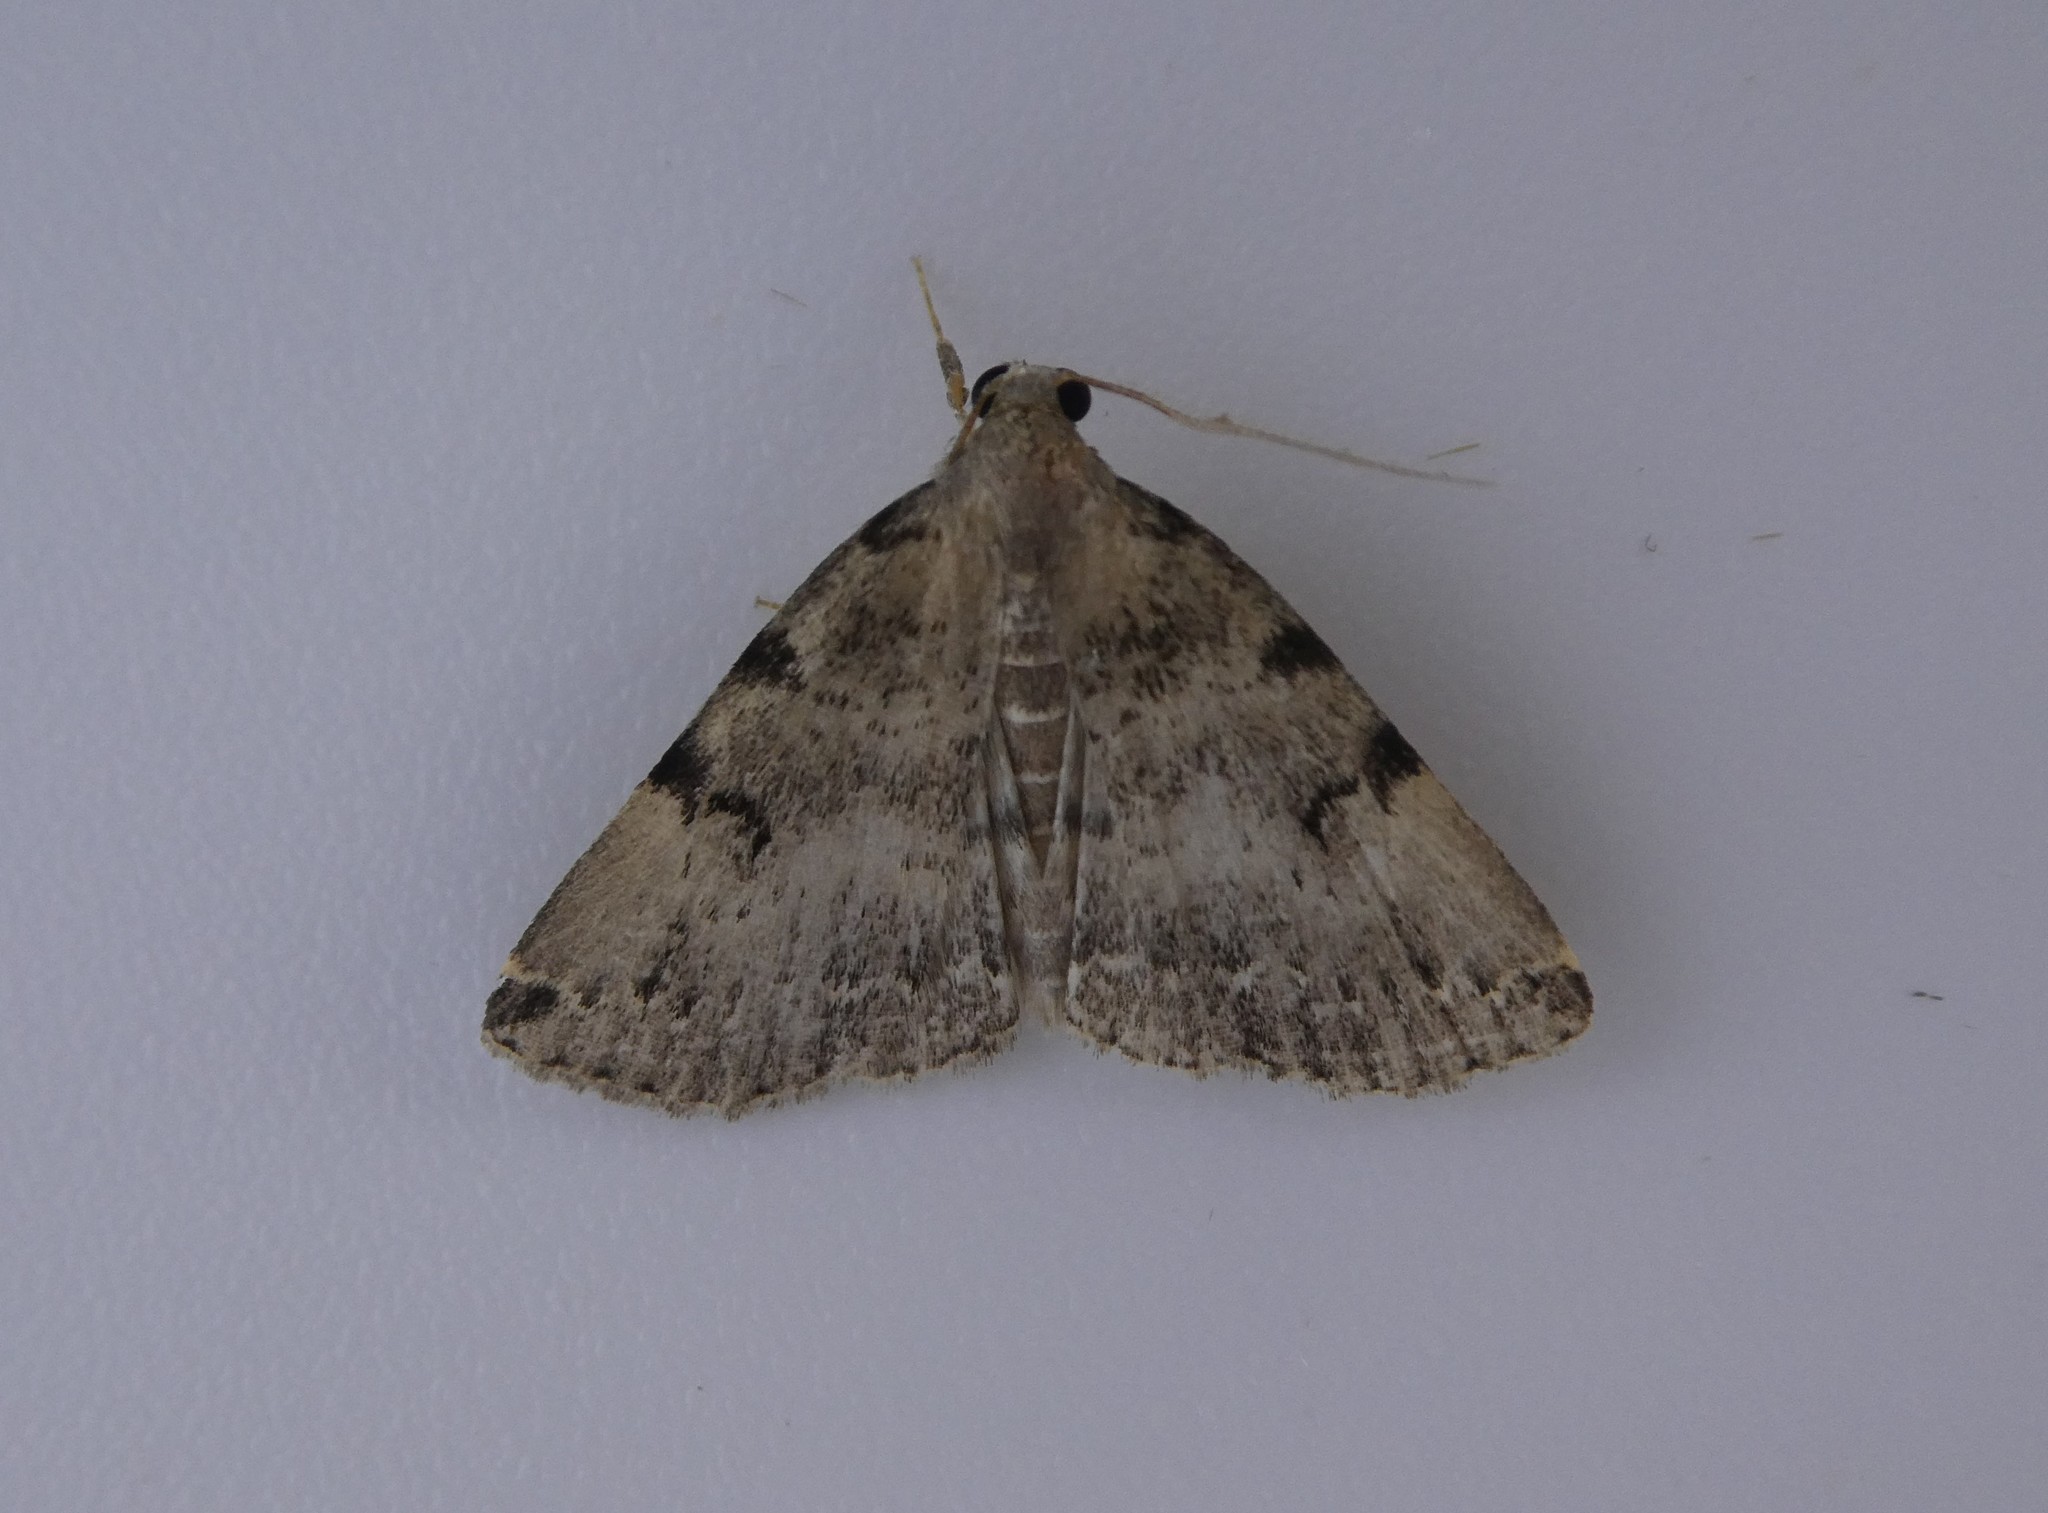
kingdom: Animalia
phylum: Arthropoda
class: Insecta
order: Lepidoptera
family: Erebidae
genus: Zanclognatha
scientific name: Zanclognatha lituralis
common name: Lettered fan-foot
